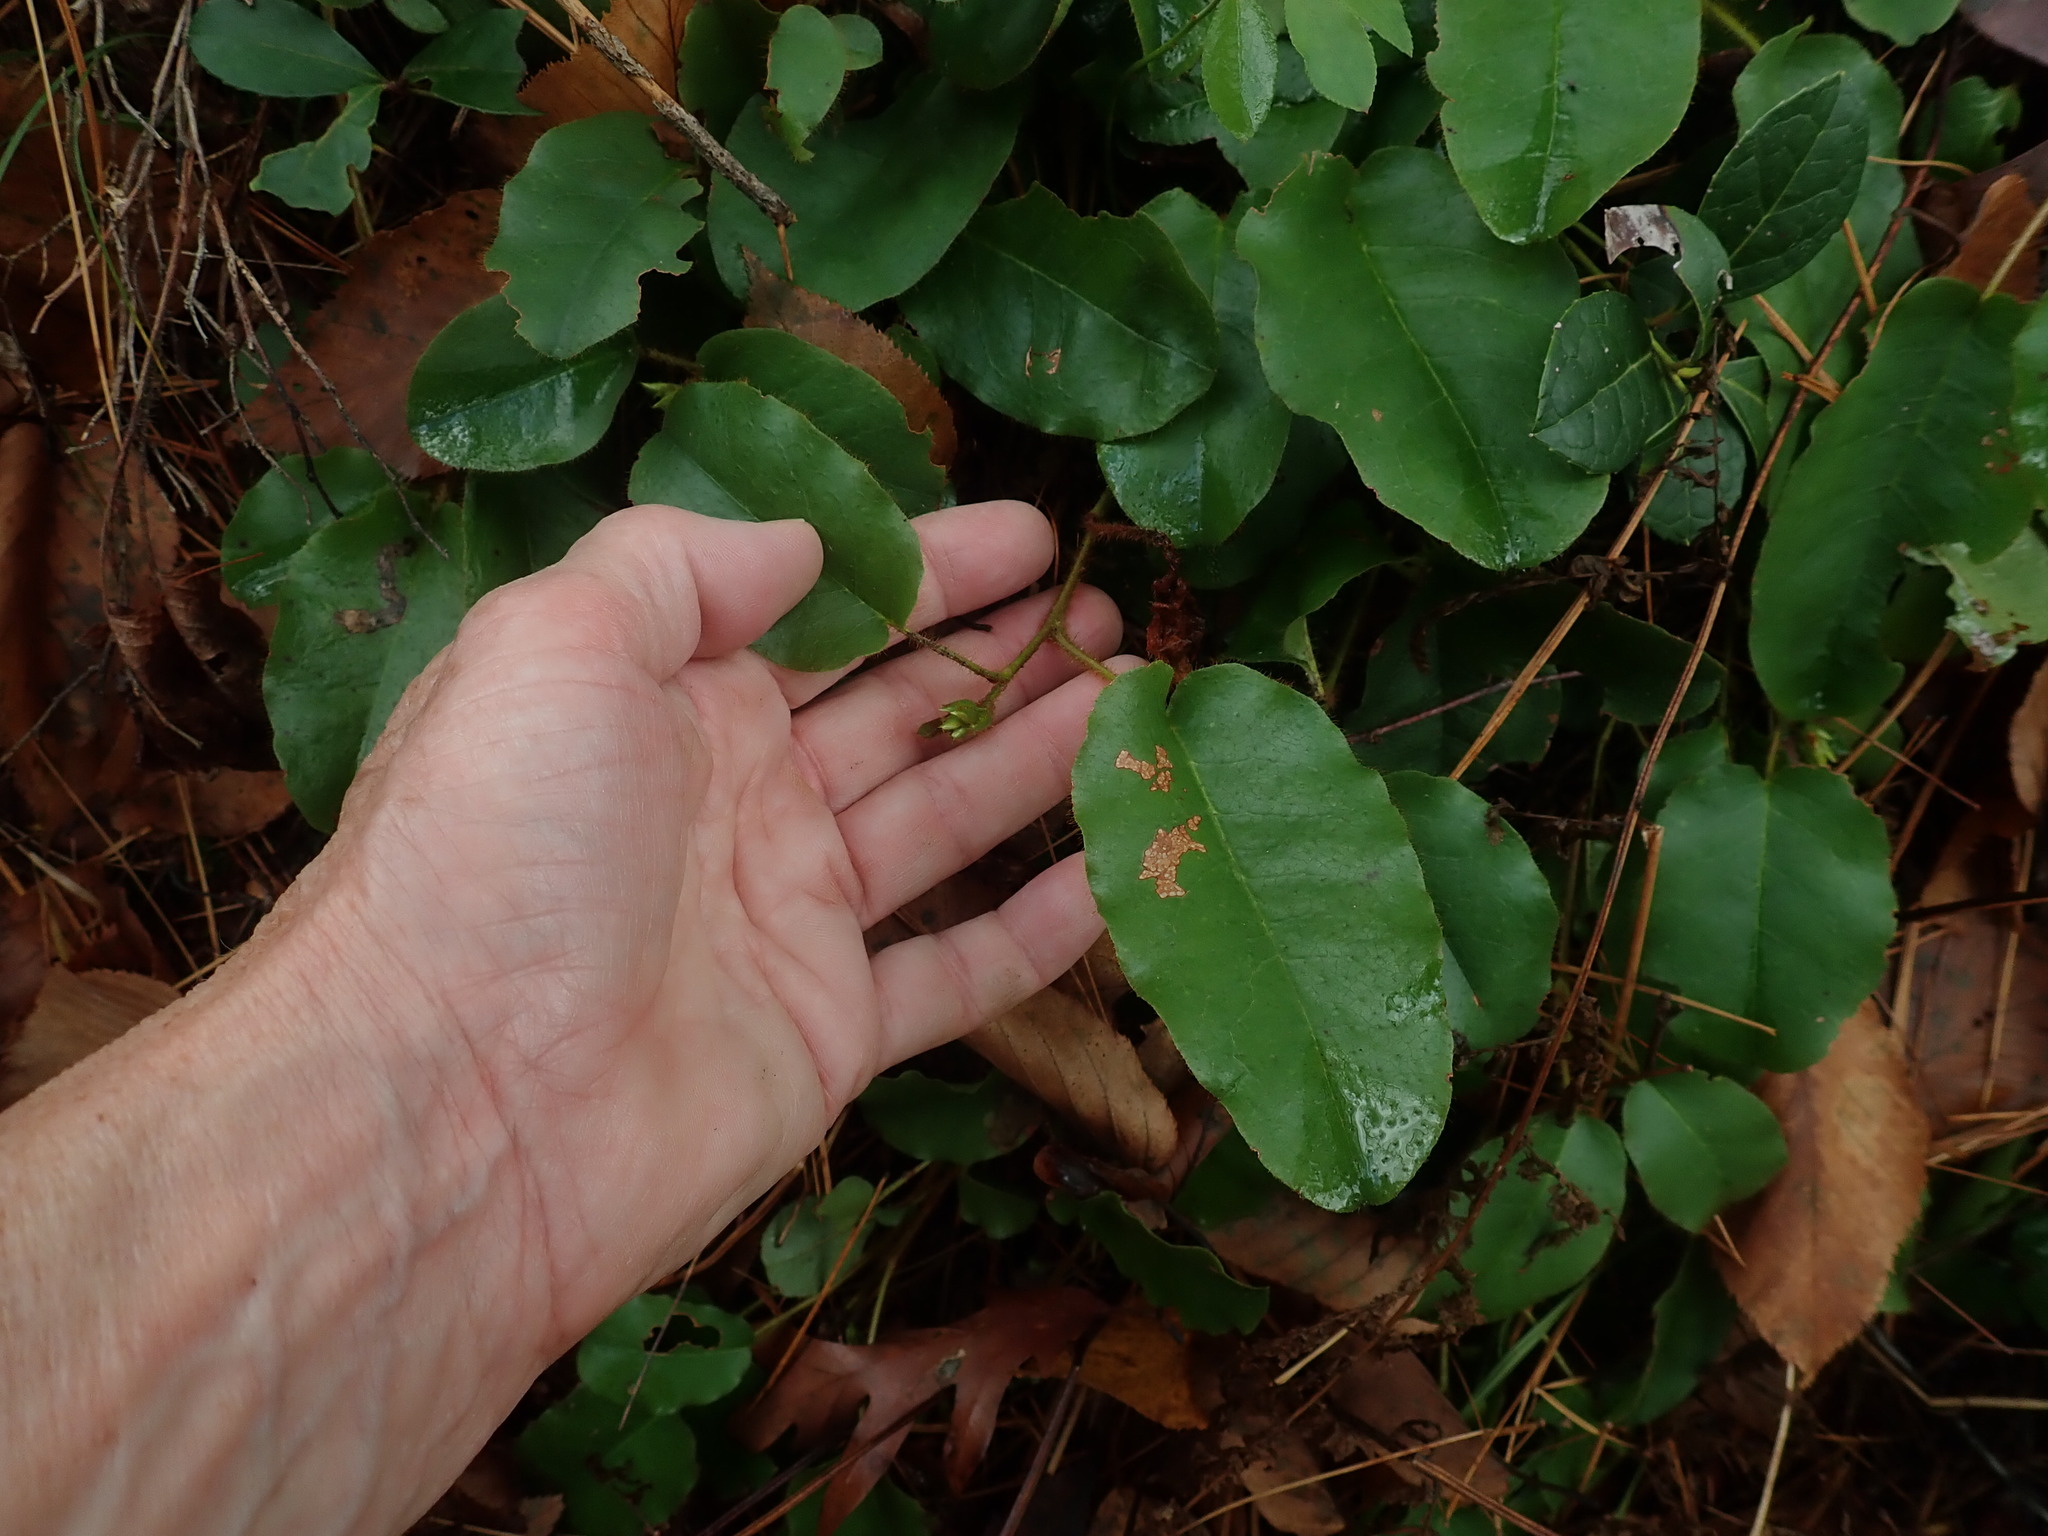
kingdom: Plantae
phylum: Tracheophyta
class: Magnoliopsida
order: Ericales
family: Ericaceae
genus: Epigaea
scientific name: Epigaea repens
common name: Gravelroot
